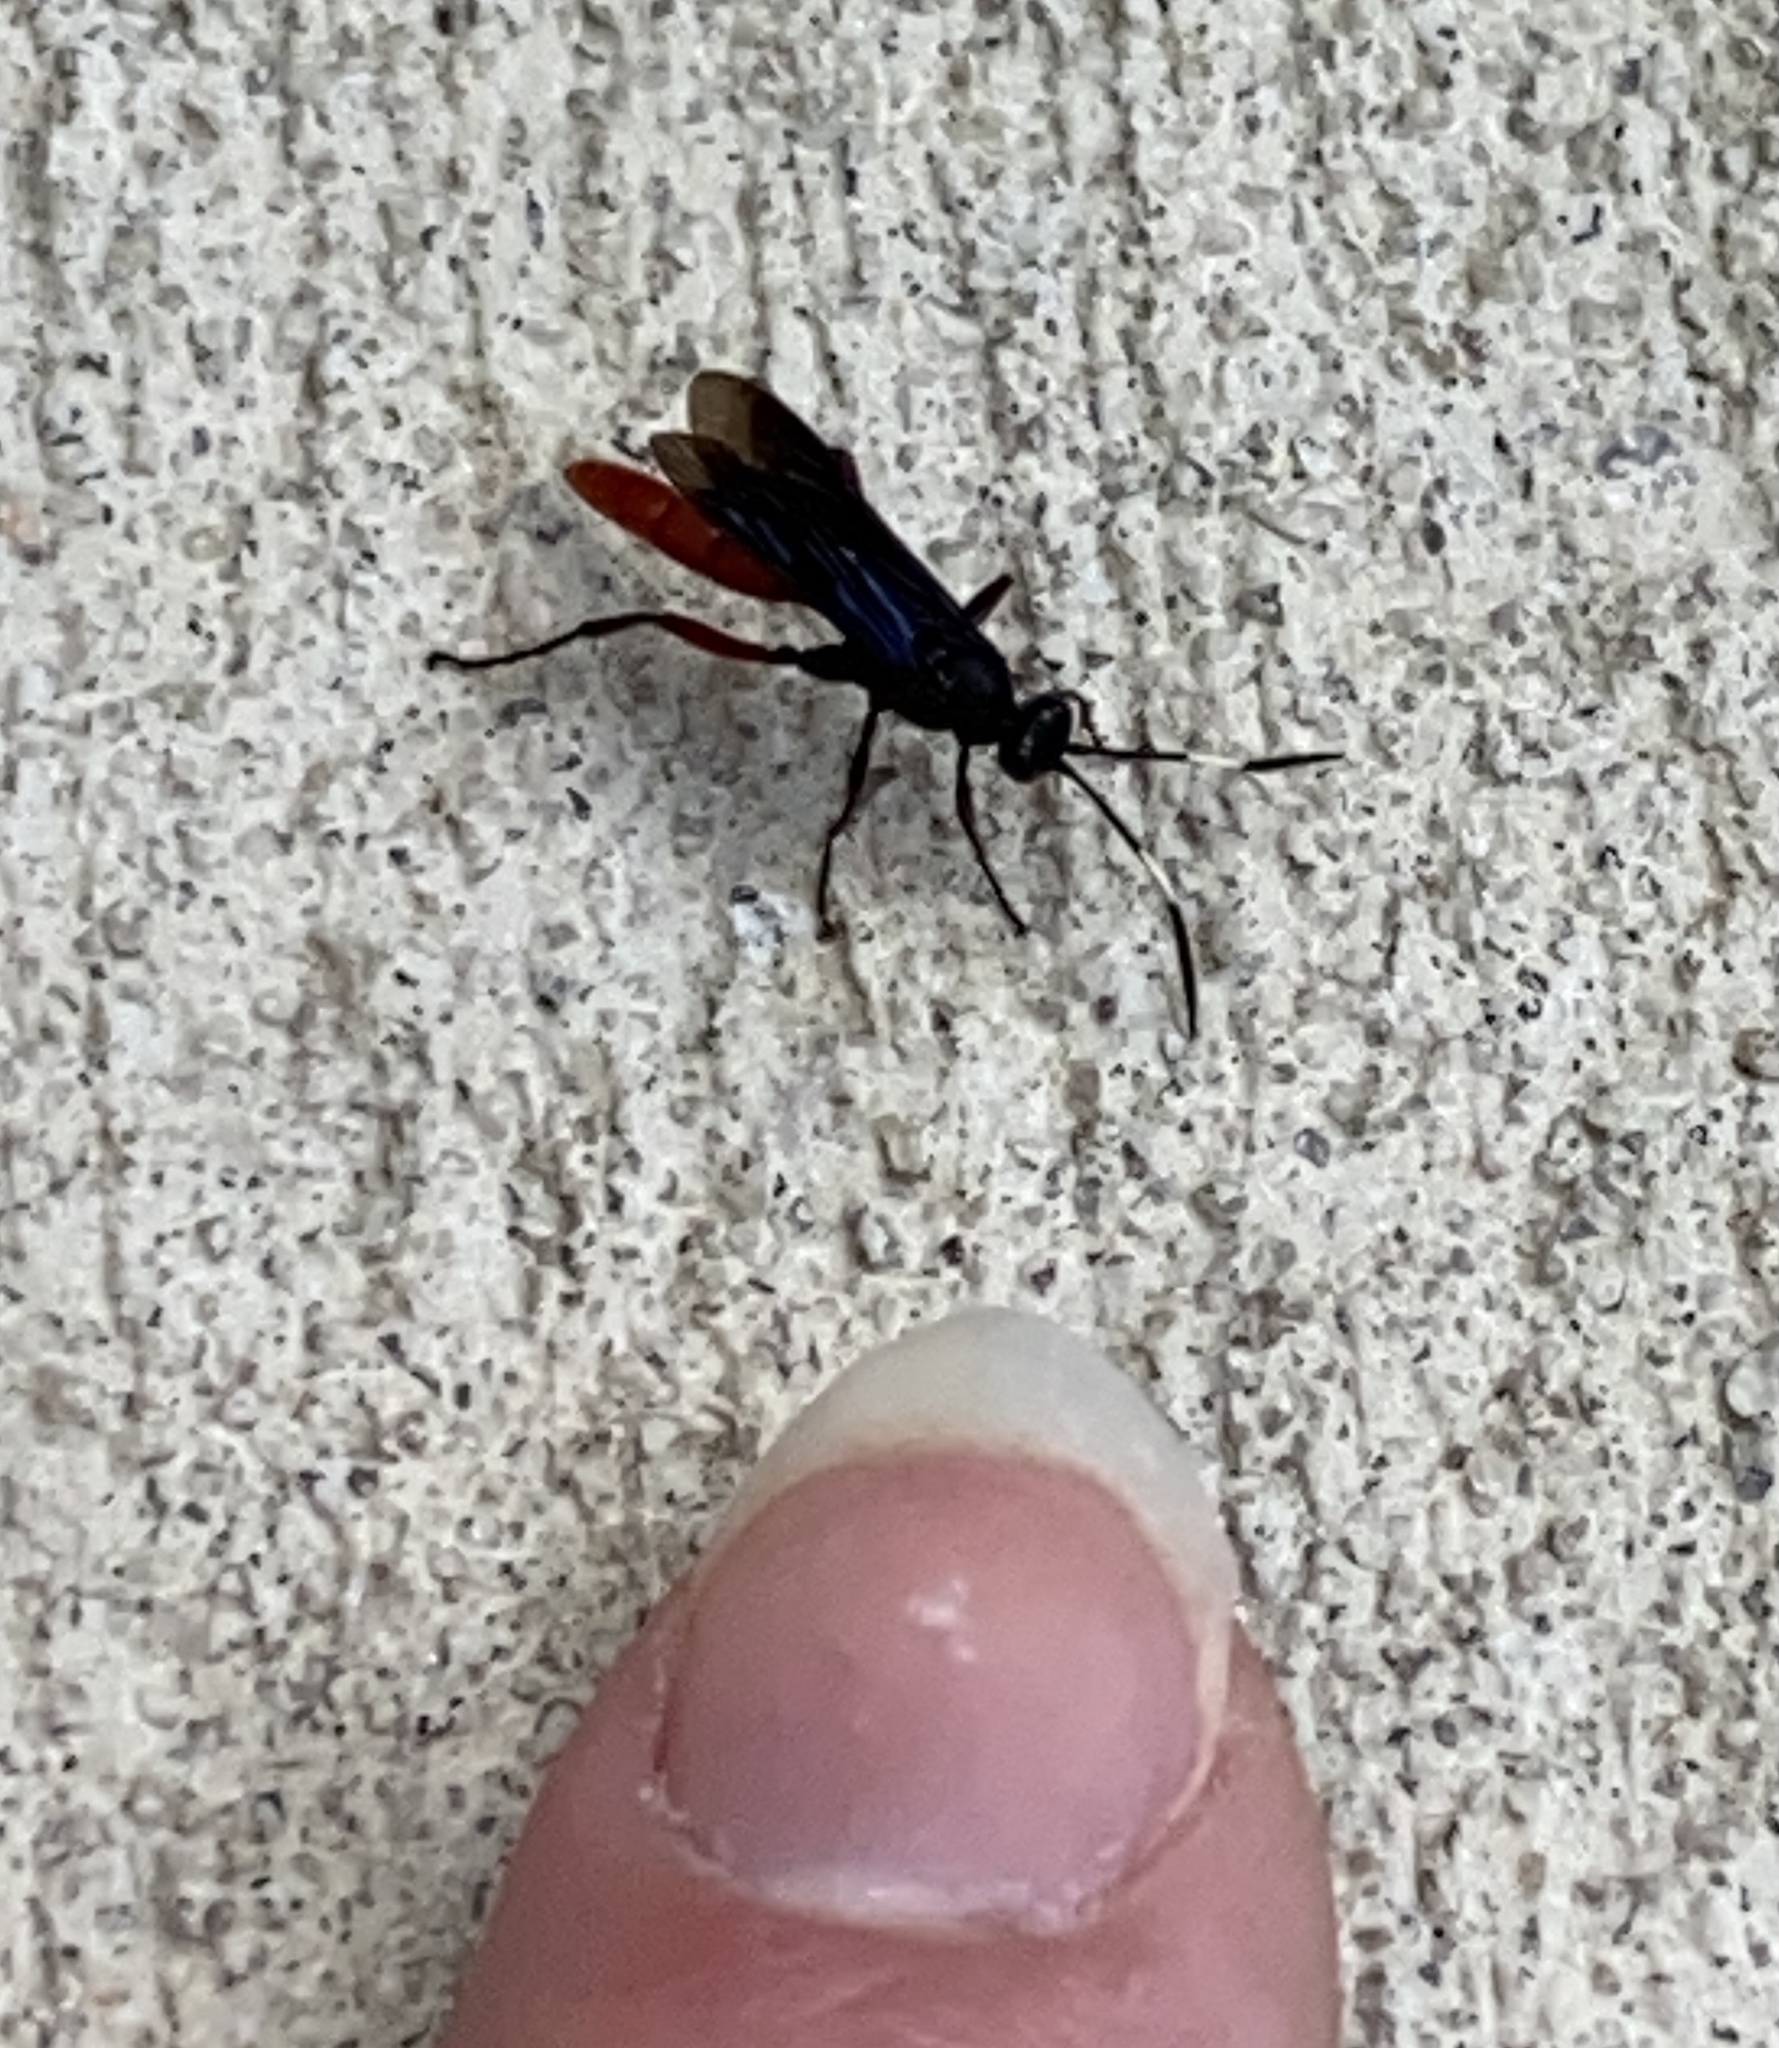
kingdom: Animalia
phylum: Arthropoda
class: Insecta
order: Hymenoptera
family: Ichneumonidae
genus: Limonethe
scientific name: Limonethe maurator
